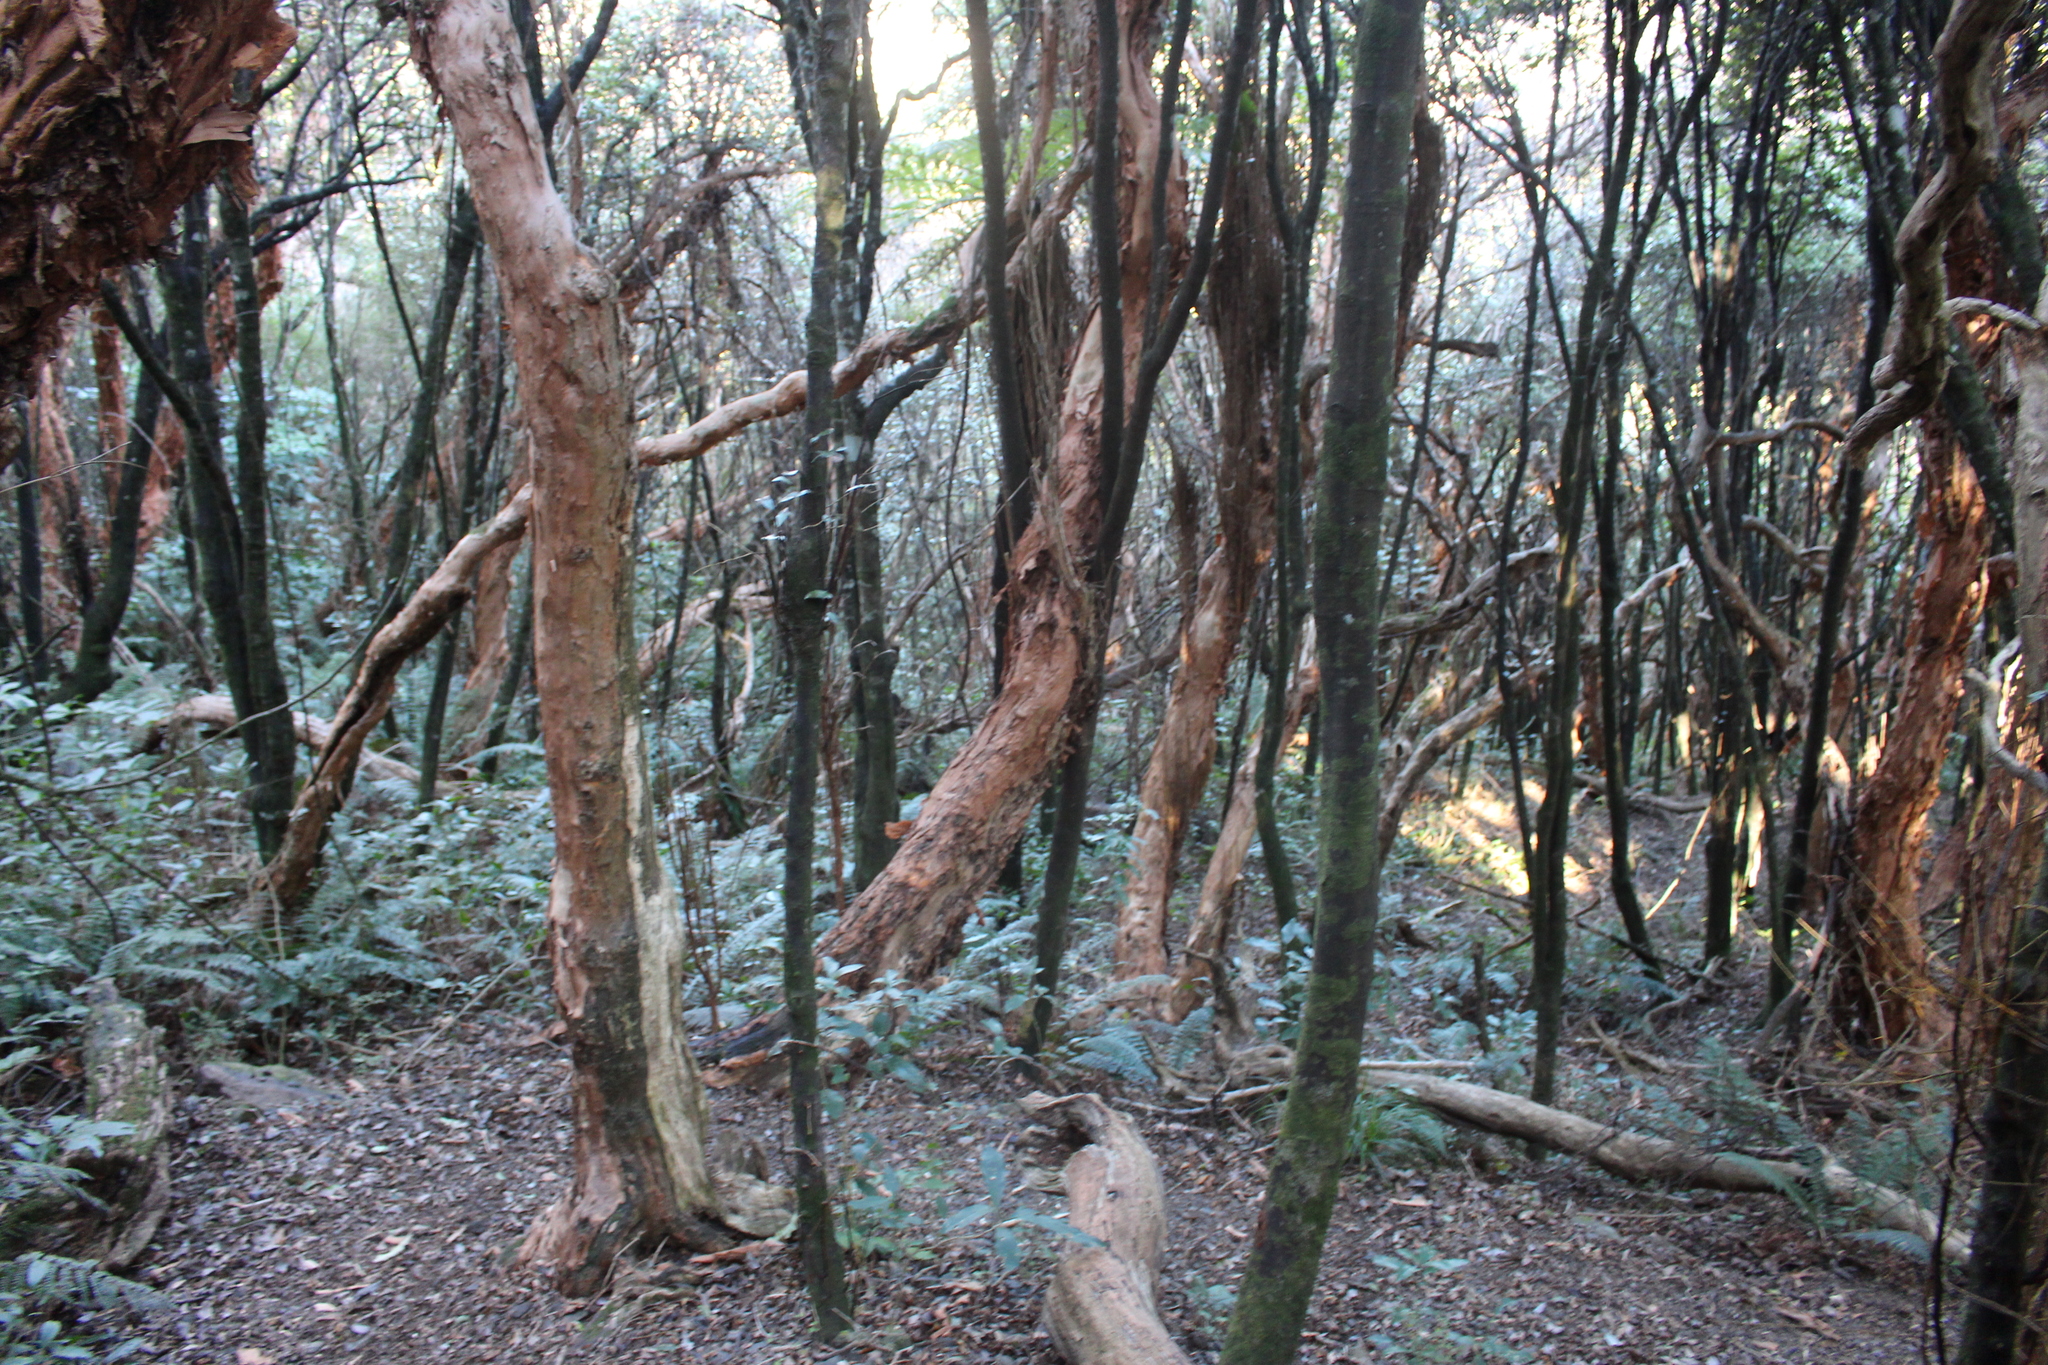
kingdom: Plantae
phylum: Tracheophyta
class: Magnoliopsida
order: Myrtales
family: Onagraceae
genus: Fuchsia
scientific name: Fuchsia excorticata
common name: Tree fuchsia
